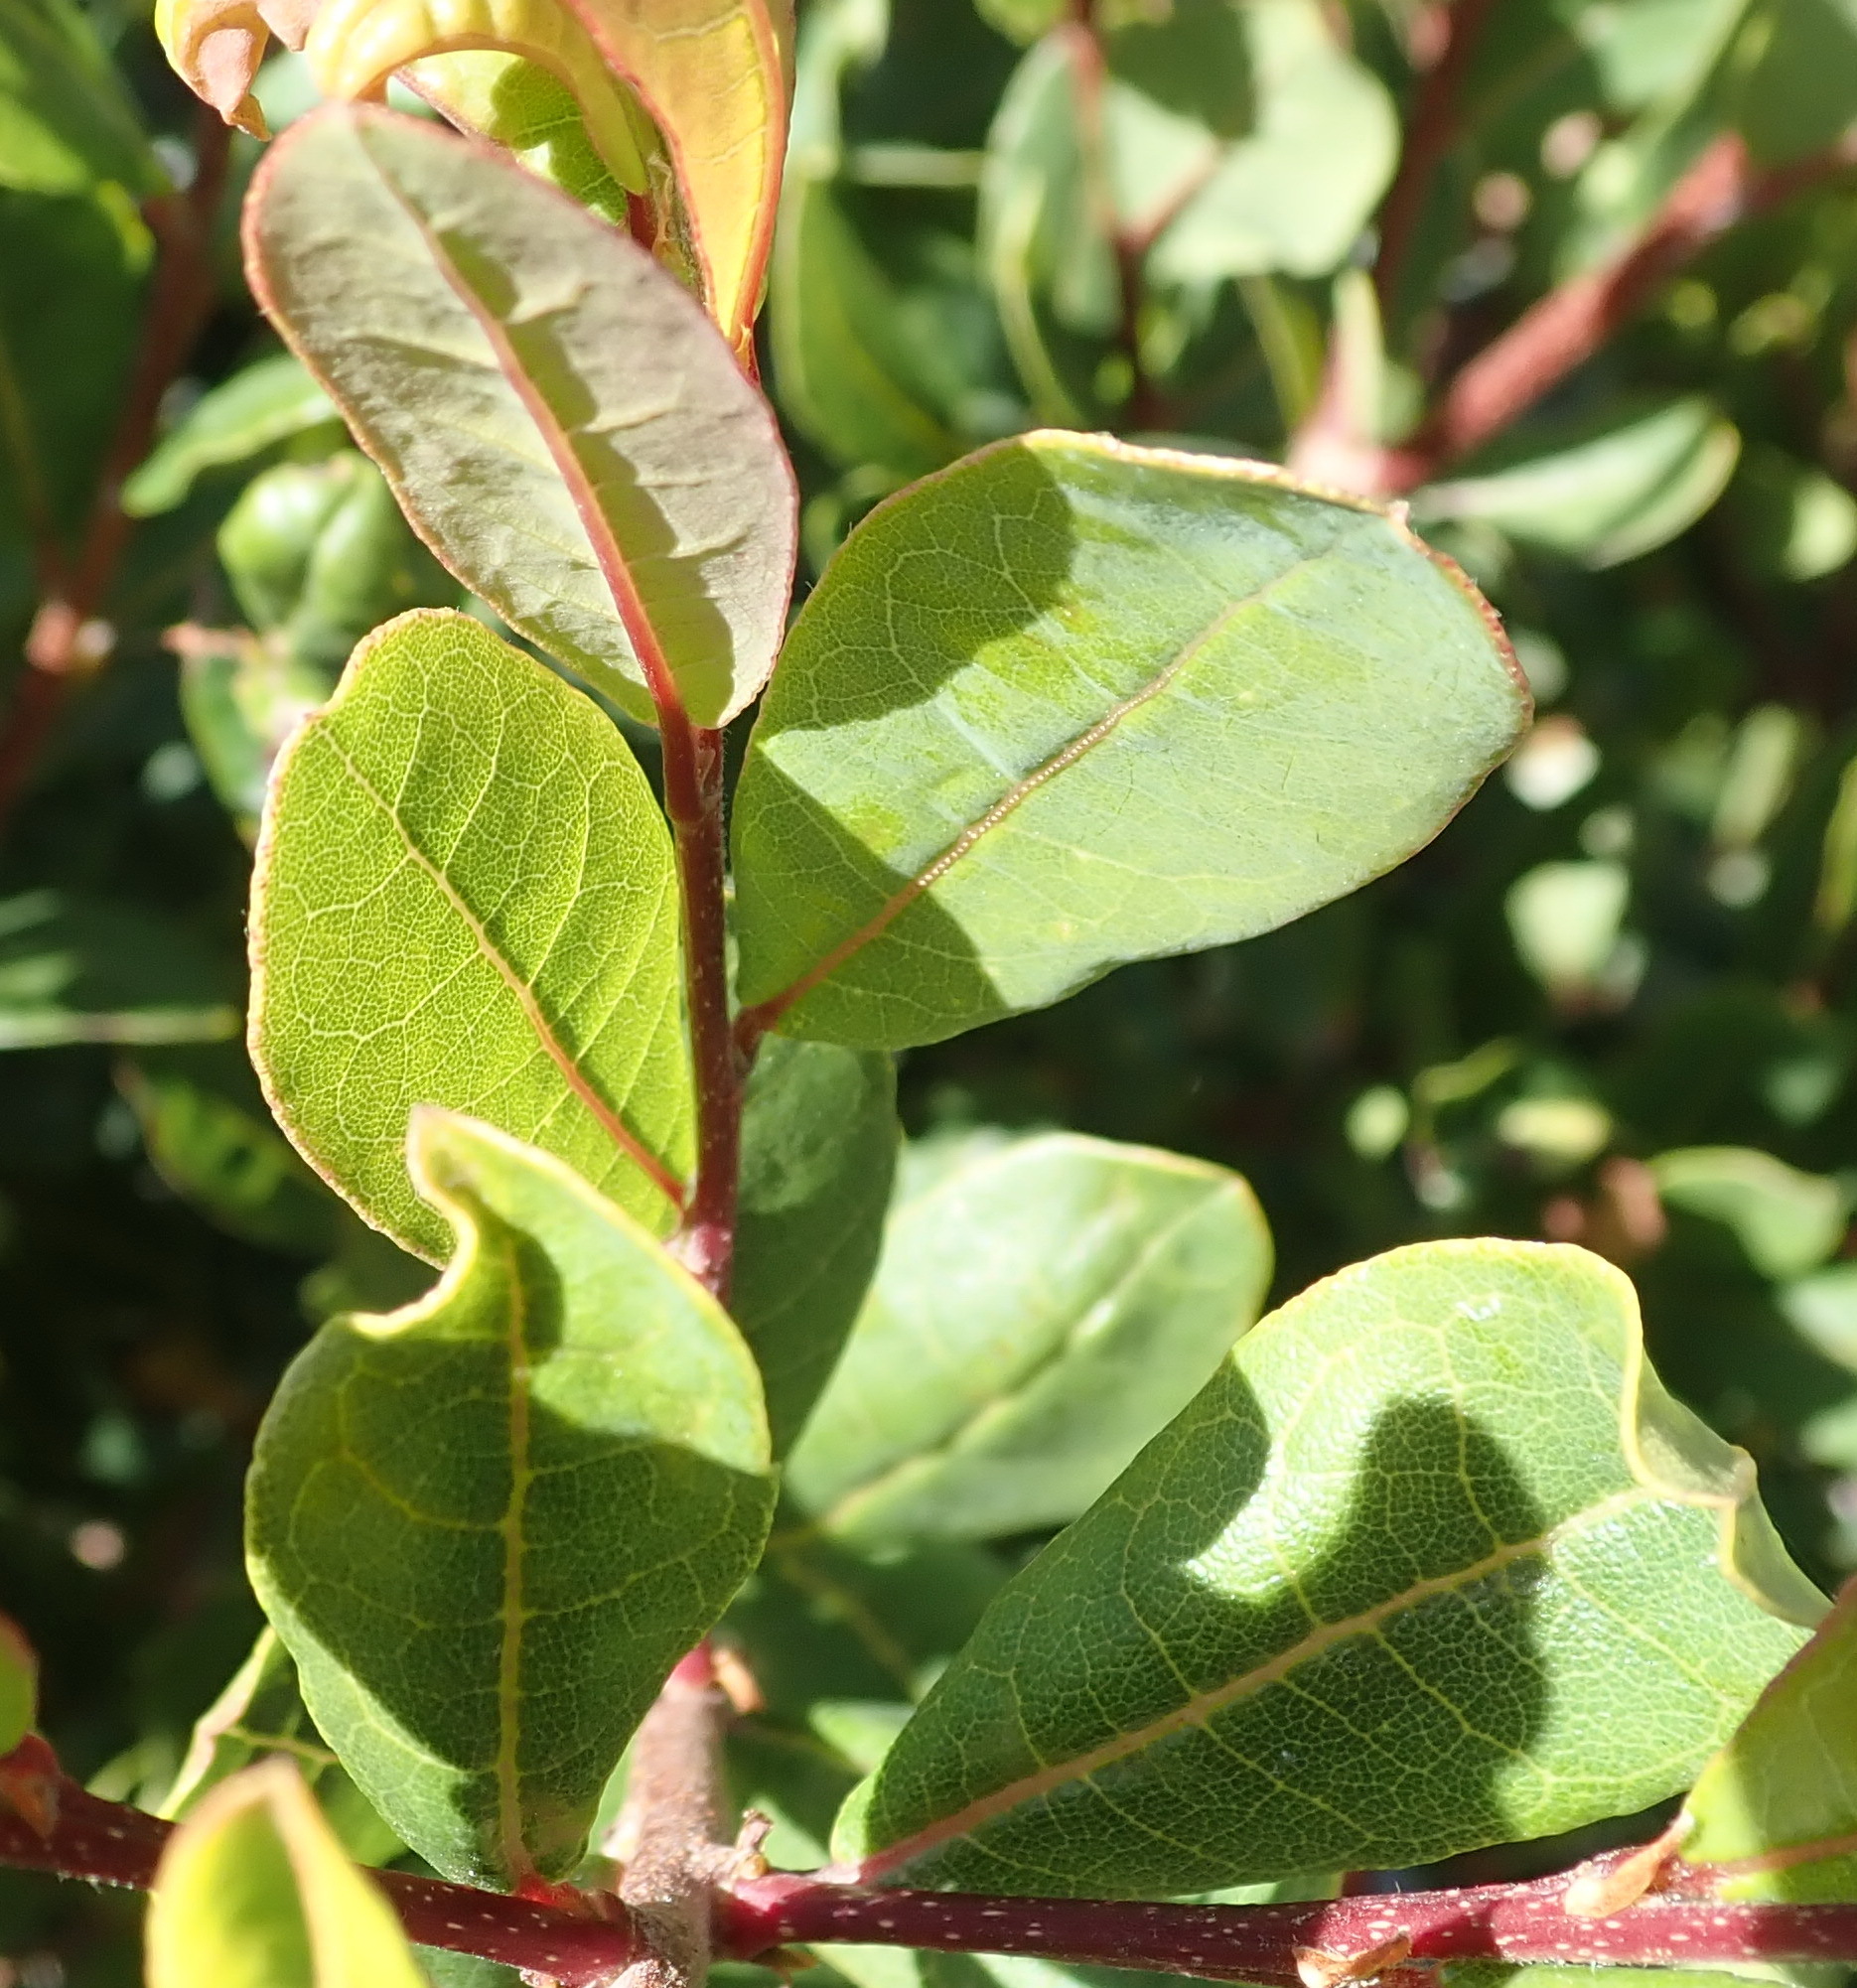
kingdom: Plantae
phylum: Tracheophyta
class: Magnoliopsida
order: Malpighiales
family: Phyllanthaceae
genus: Lachnostylis
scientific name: Lachnostylis hirta
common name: Coalwood
